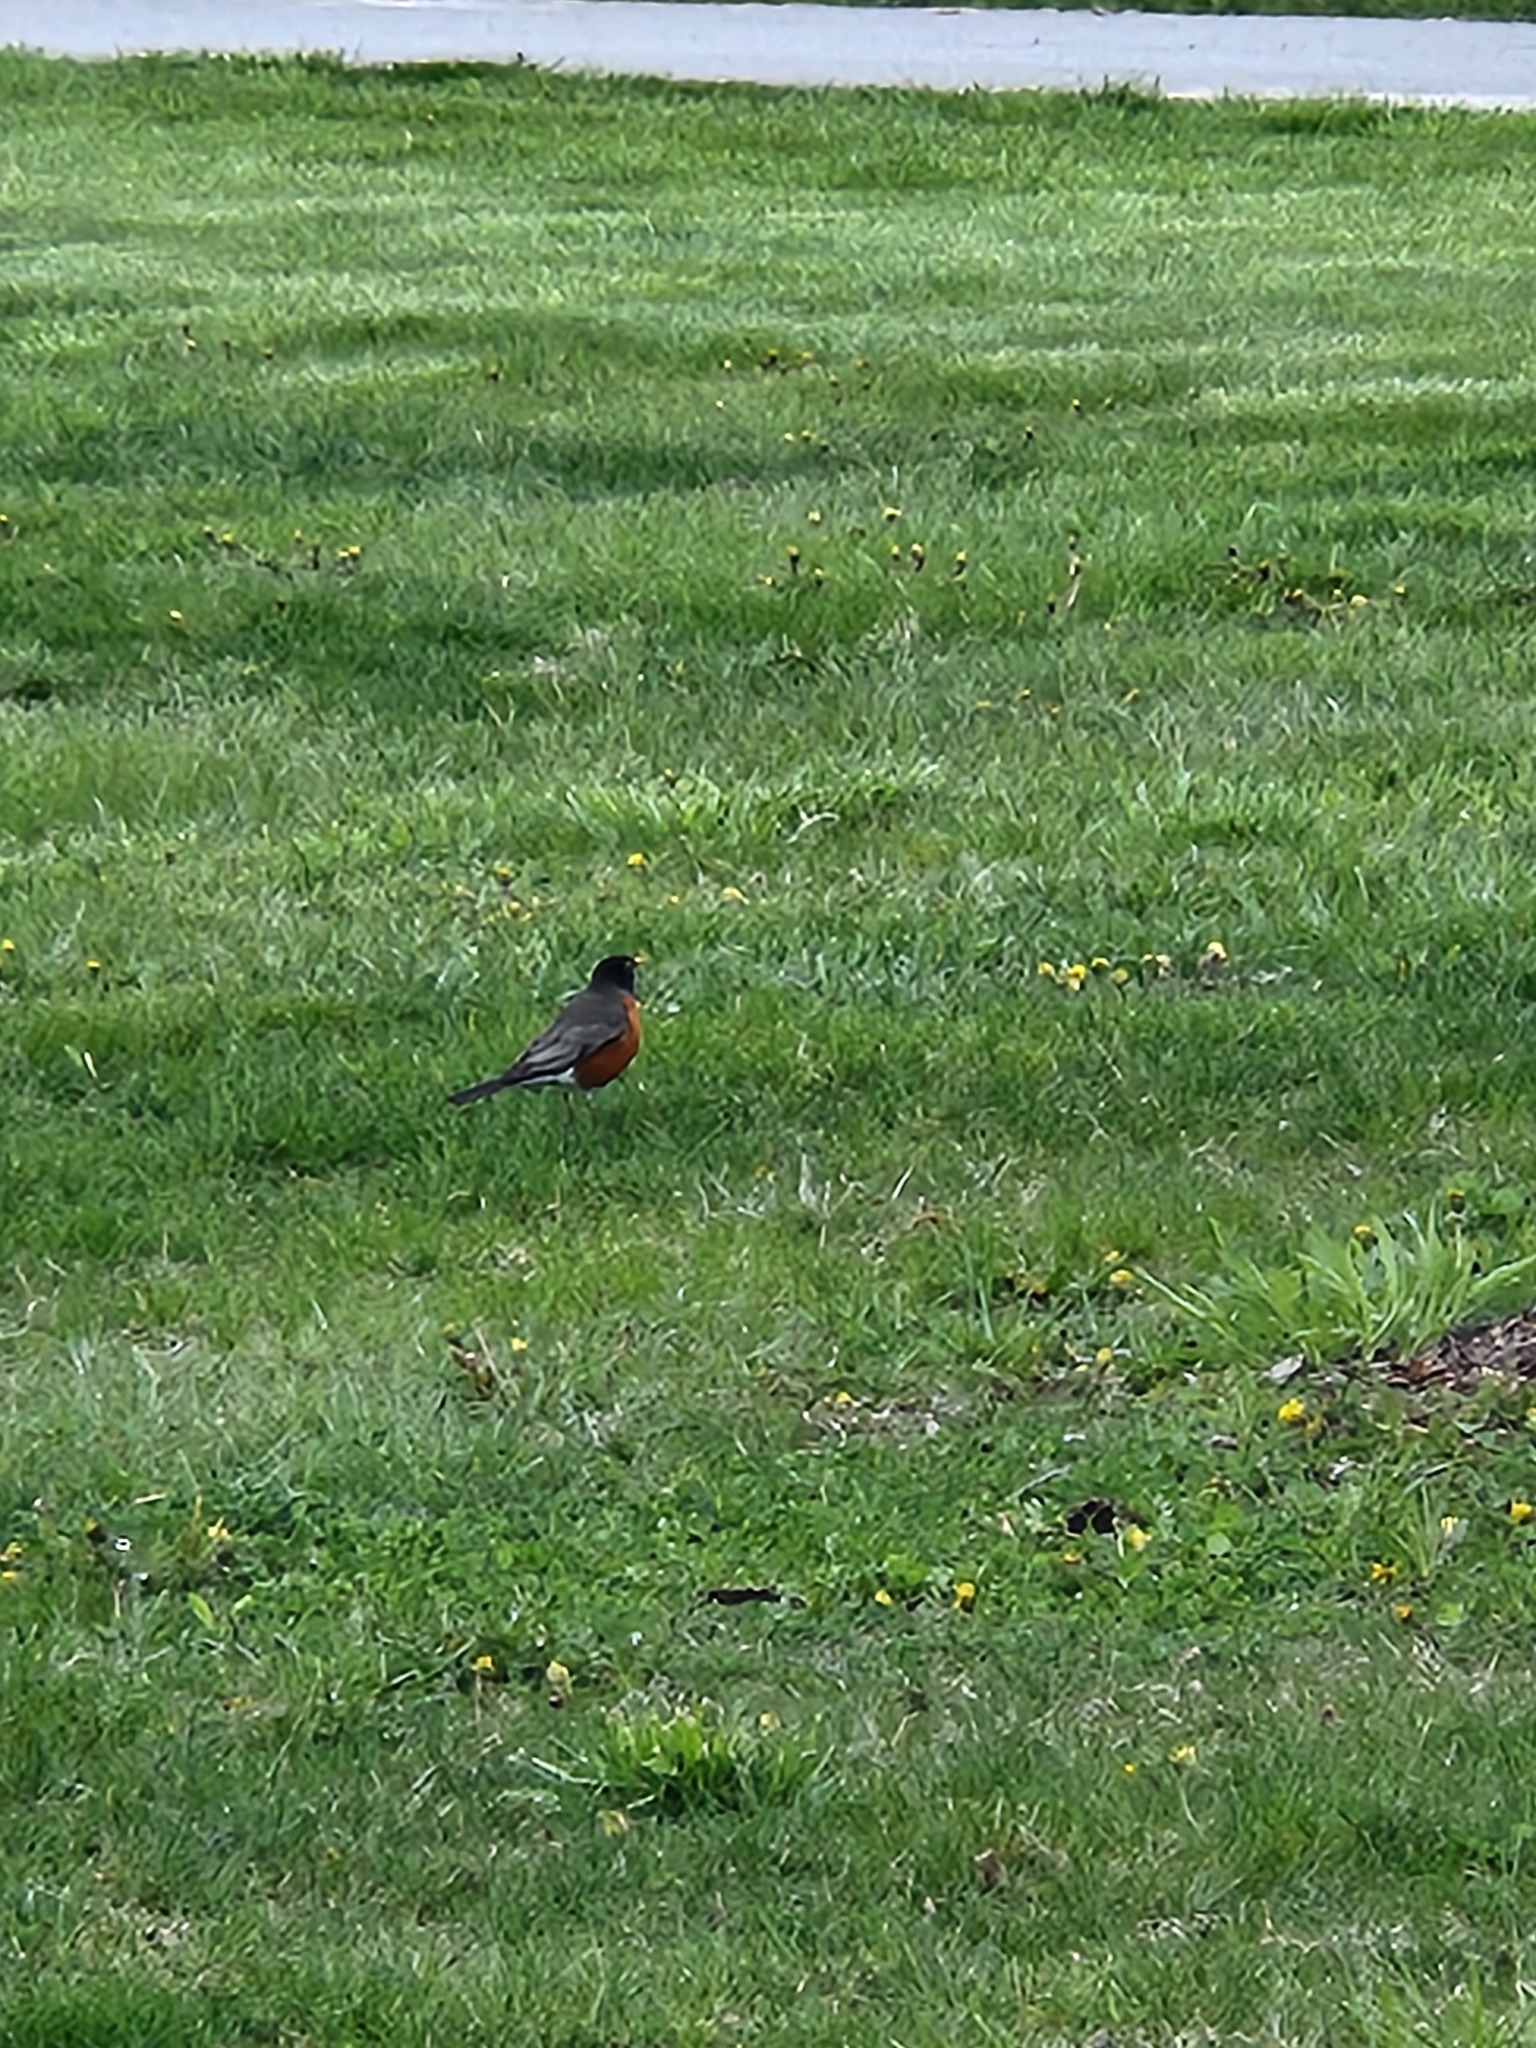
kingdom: Animalia
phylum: Chordata
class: Aves
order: Passeriformes
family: Turdidae
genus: Turdus
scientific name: Turdus migratorius
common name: American robin
